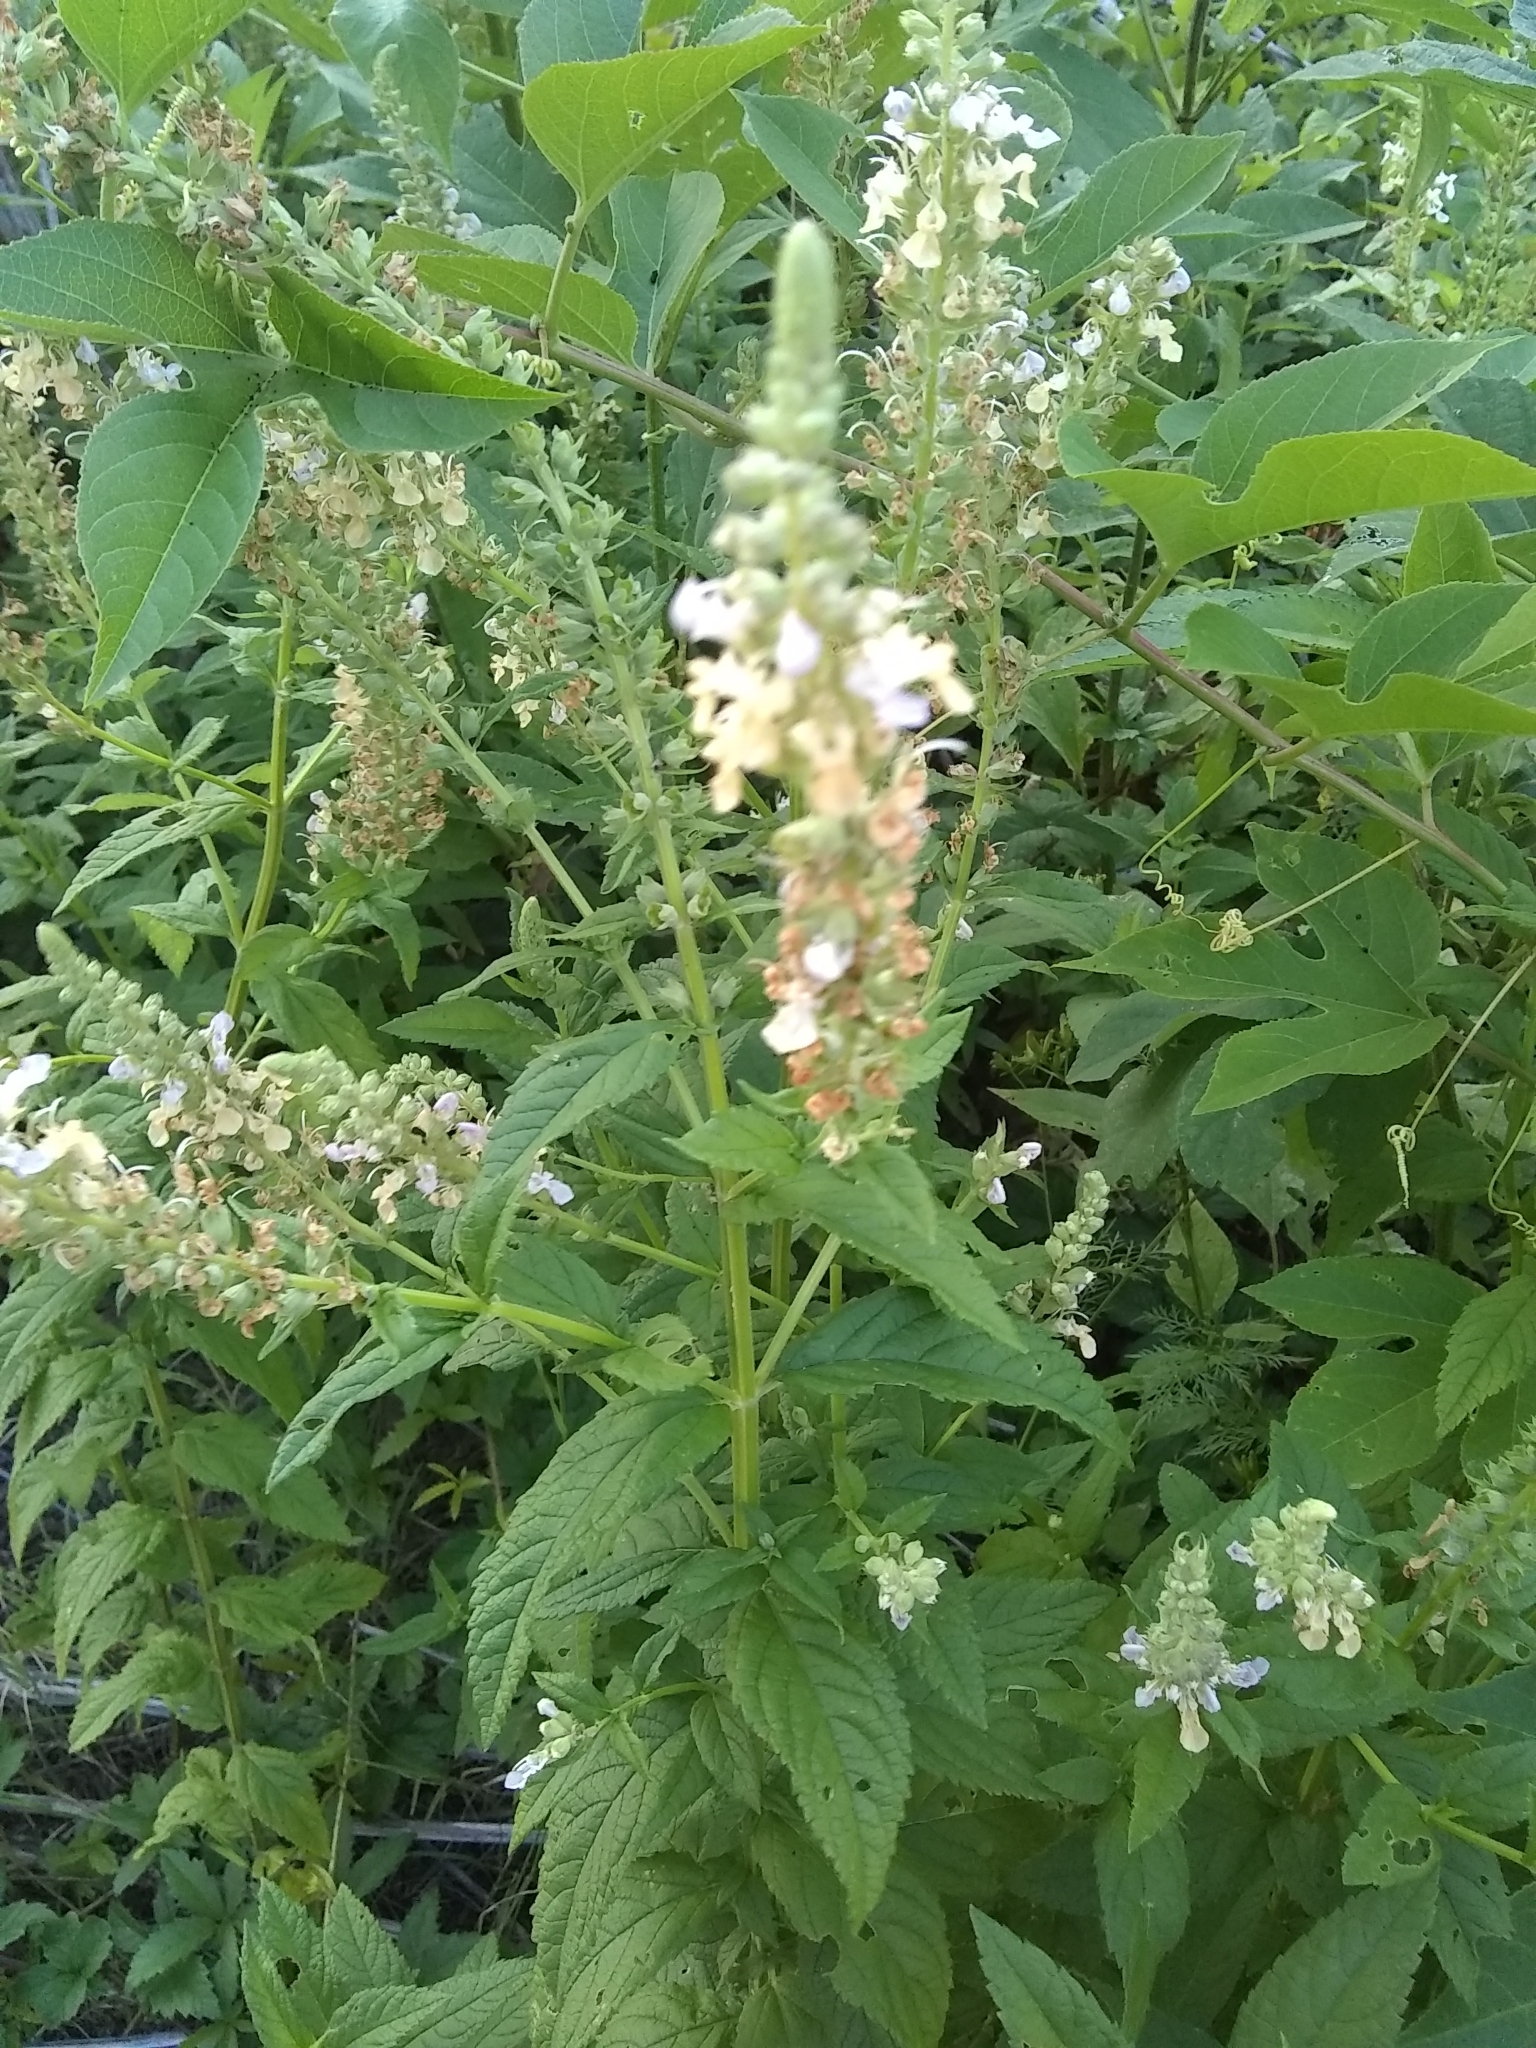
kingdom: Plantae
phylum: Tracheophyta
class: Magnoliopsida
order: Lamiales
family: Lamiaceae
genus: Teucrium
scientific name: Teucrium canadense
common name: American germander
